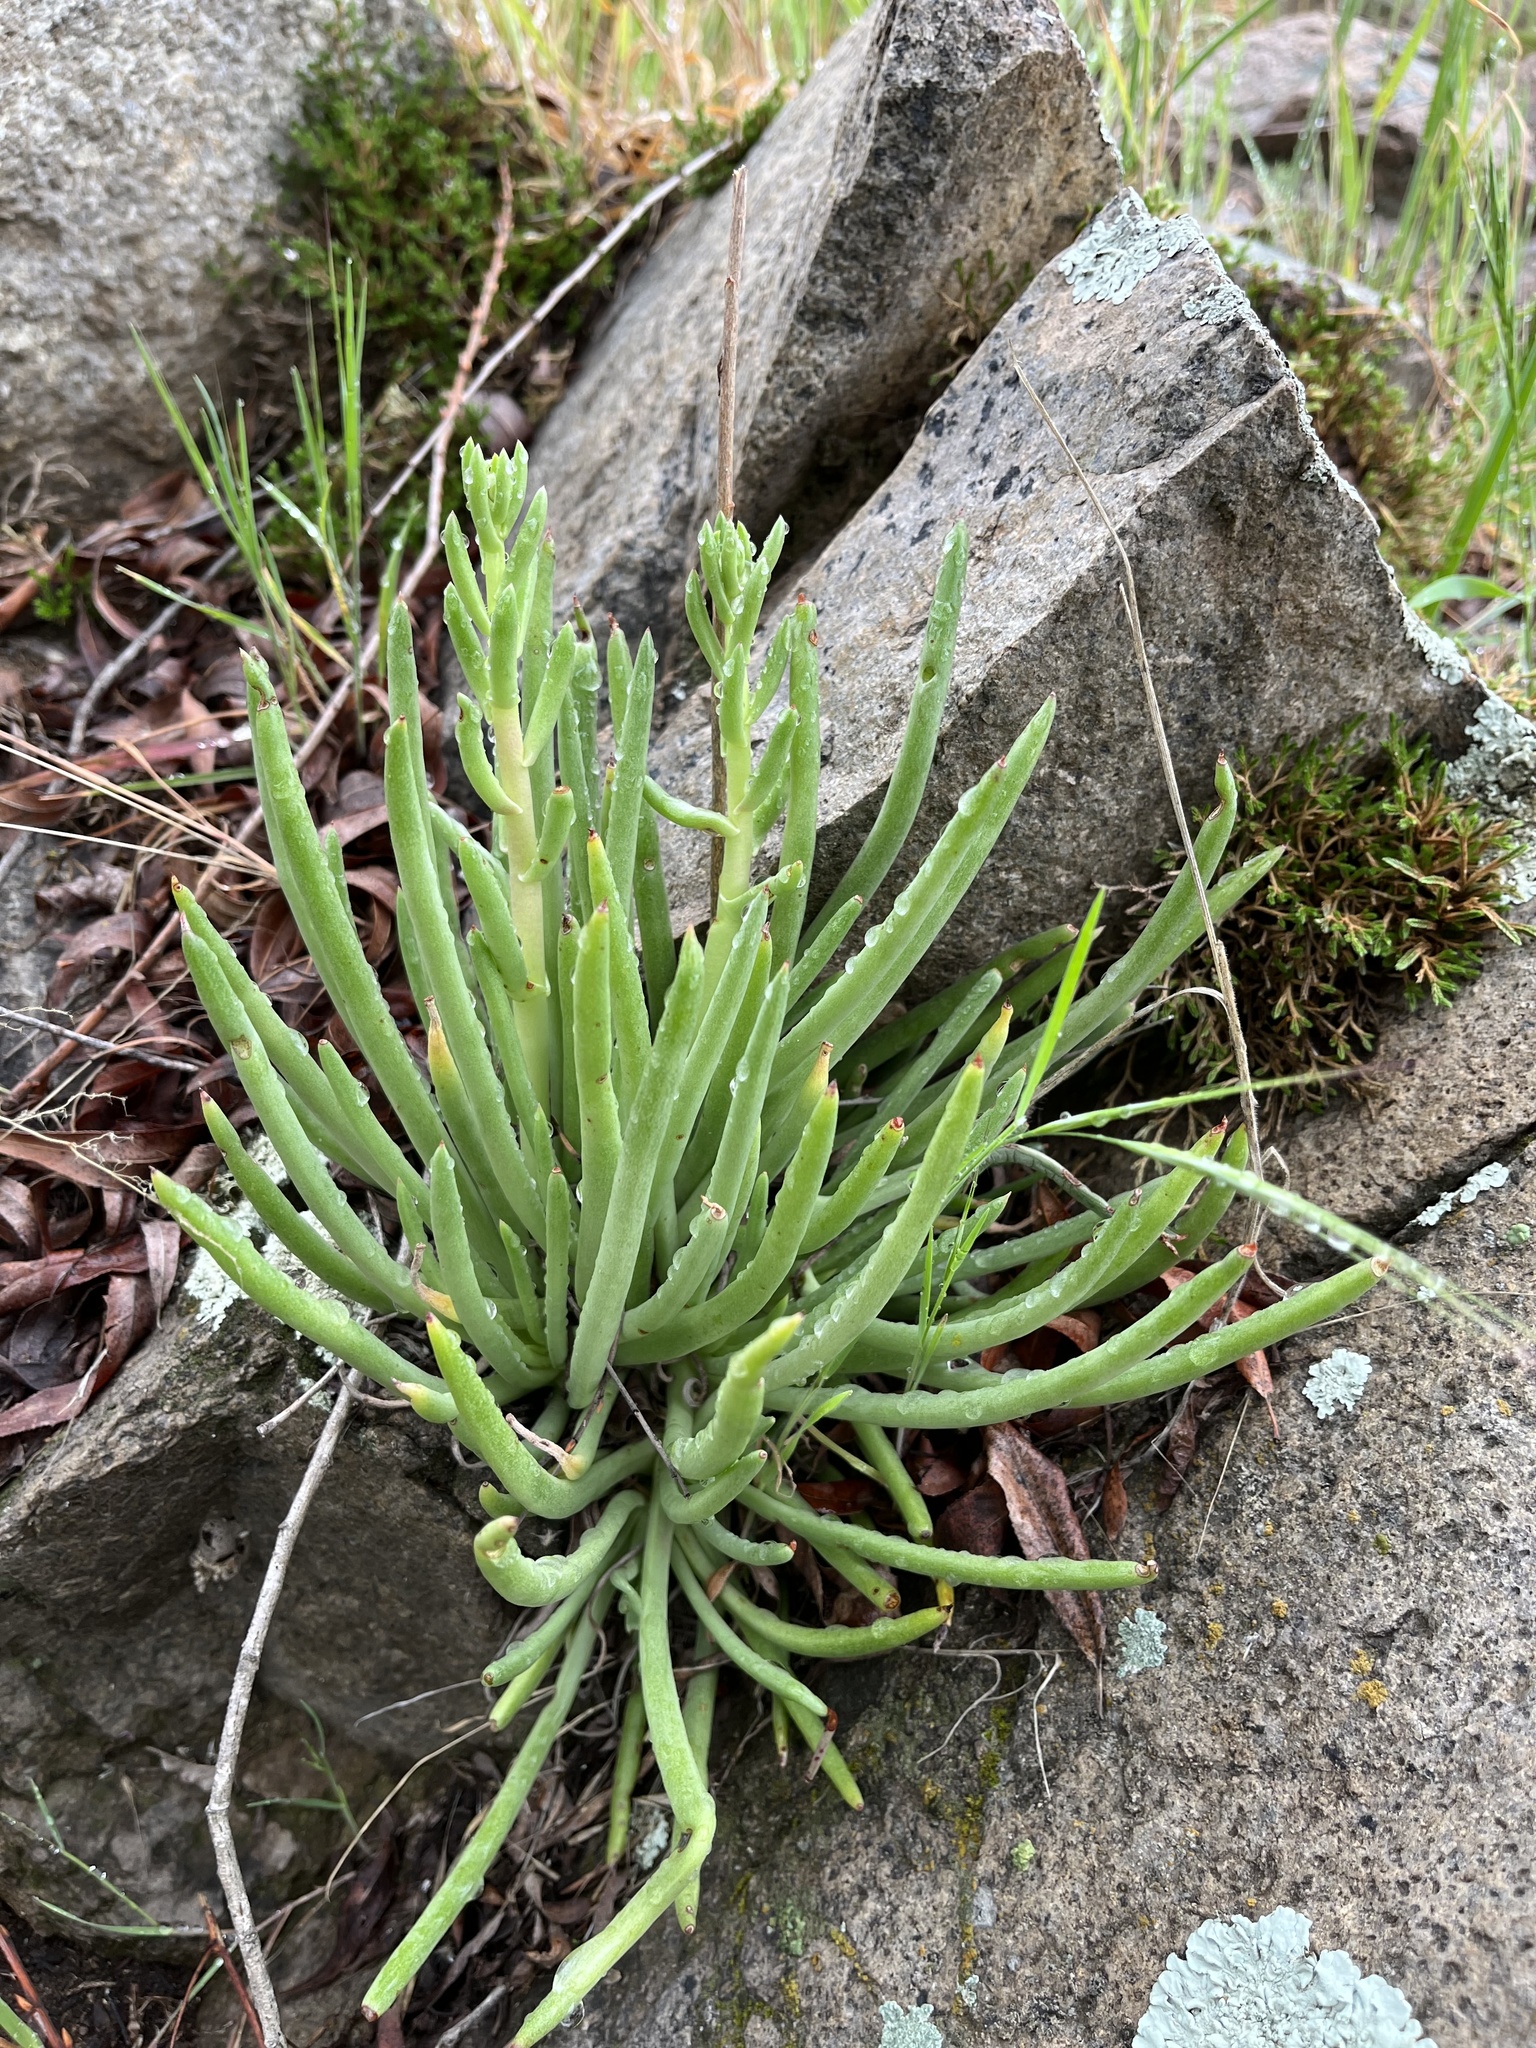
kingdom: Plantae
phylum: Tracheophyta
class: Magnoliopsida
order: Saxifragales
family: Crassulaceae
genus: Dudleya
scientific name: Dudleya edulis
